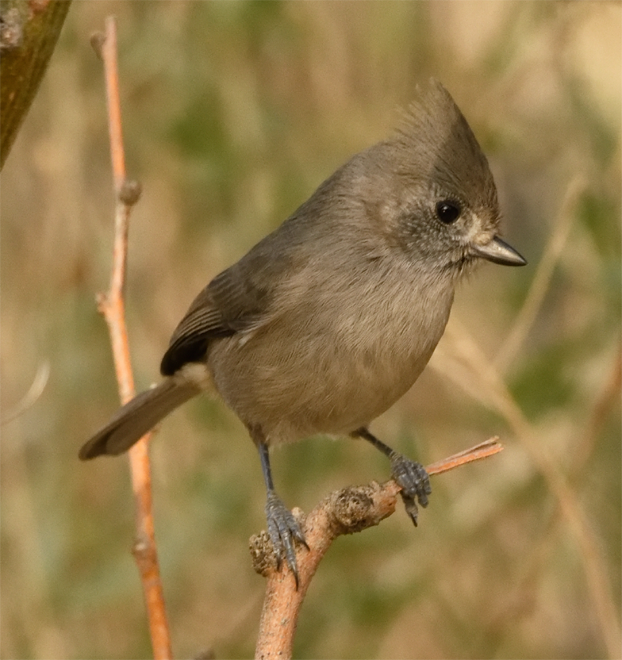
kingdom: Animalia
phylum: Chordata
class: Aves
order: Passeriformes
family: Paridae
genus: Baeolophus
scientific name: Baeolophus inornatus
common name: Oak titmouse
